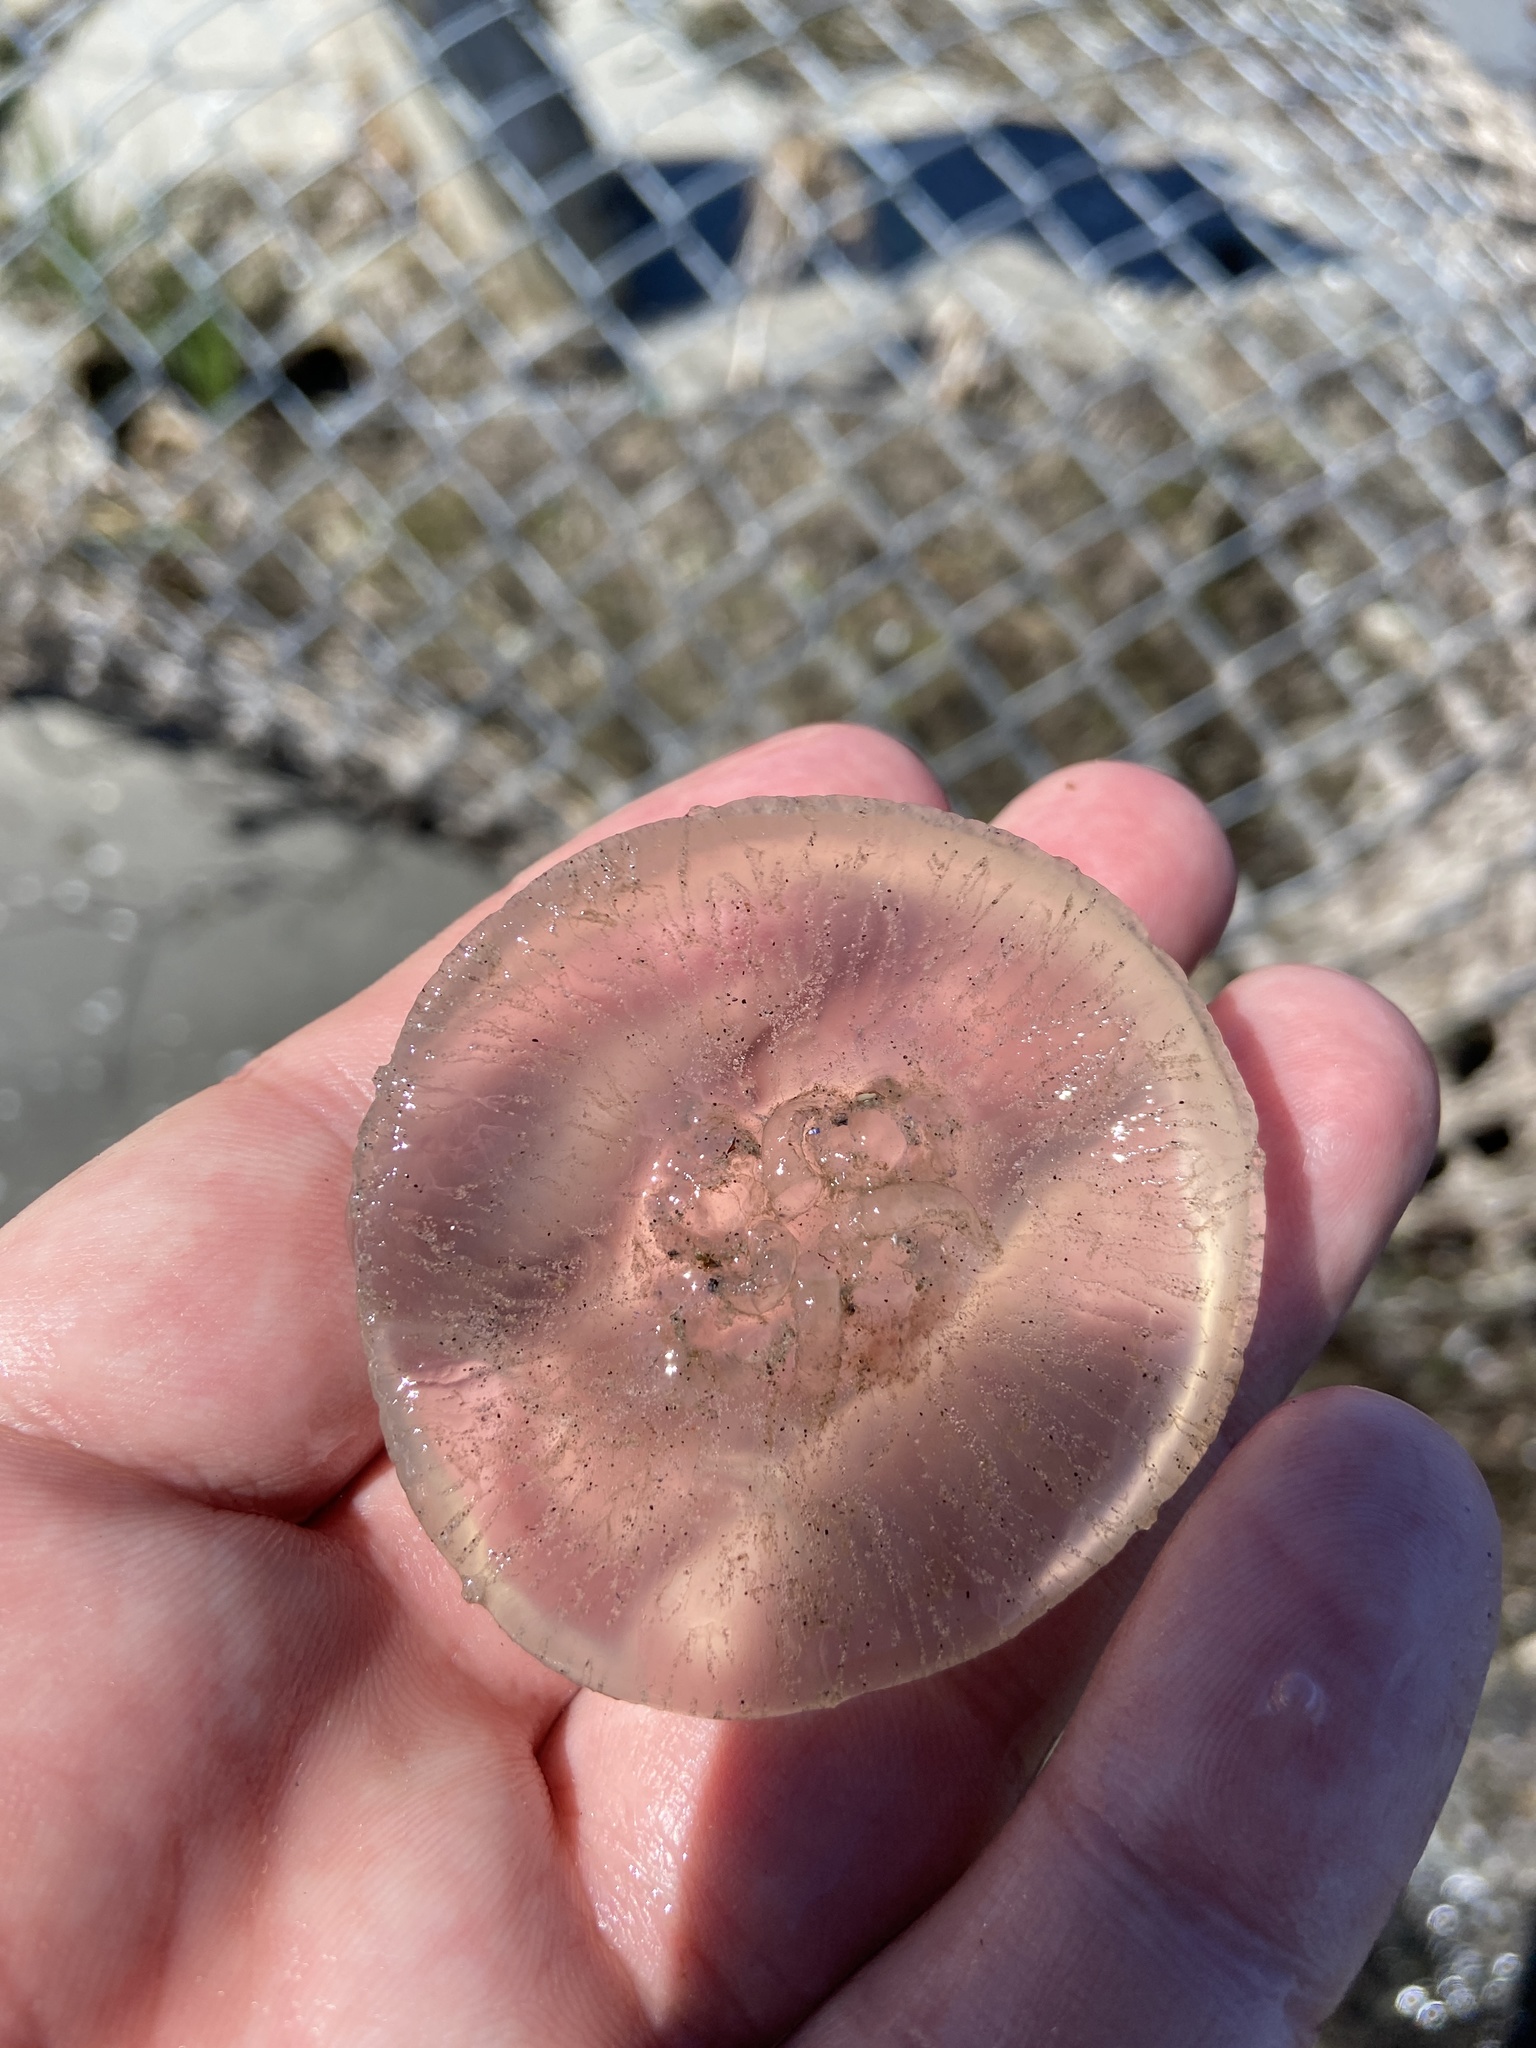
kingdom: Animalia
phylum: Cnidaria
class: Scyphozoa
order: Semaeostomeae
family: Ulmaridae
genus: Aurelia
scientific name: Aurelia aurita
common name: Moon jellyfish
